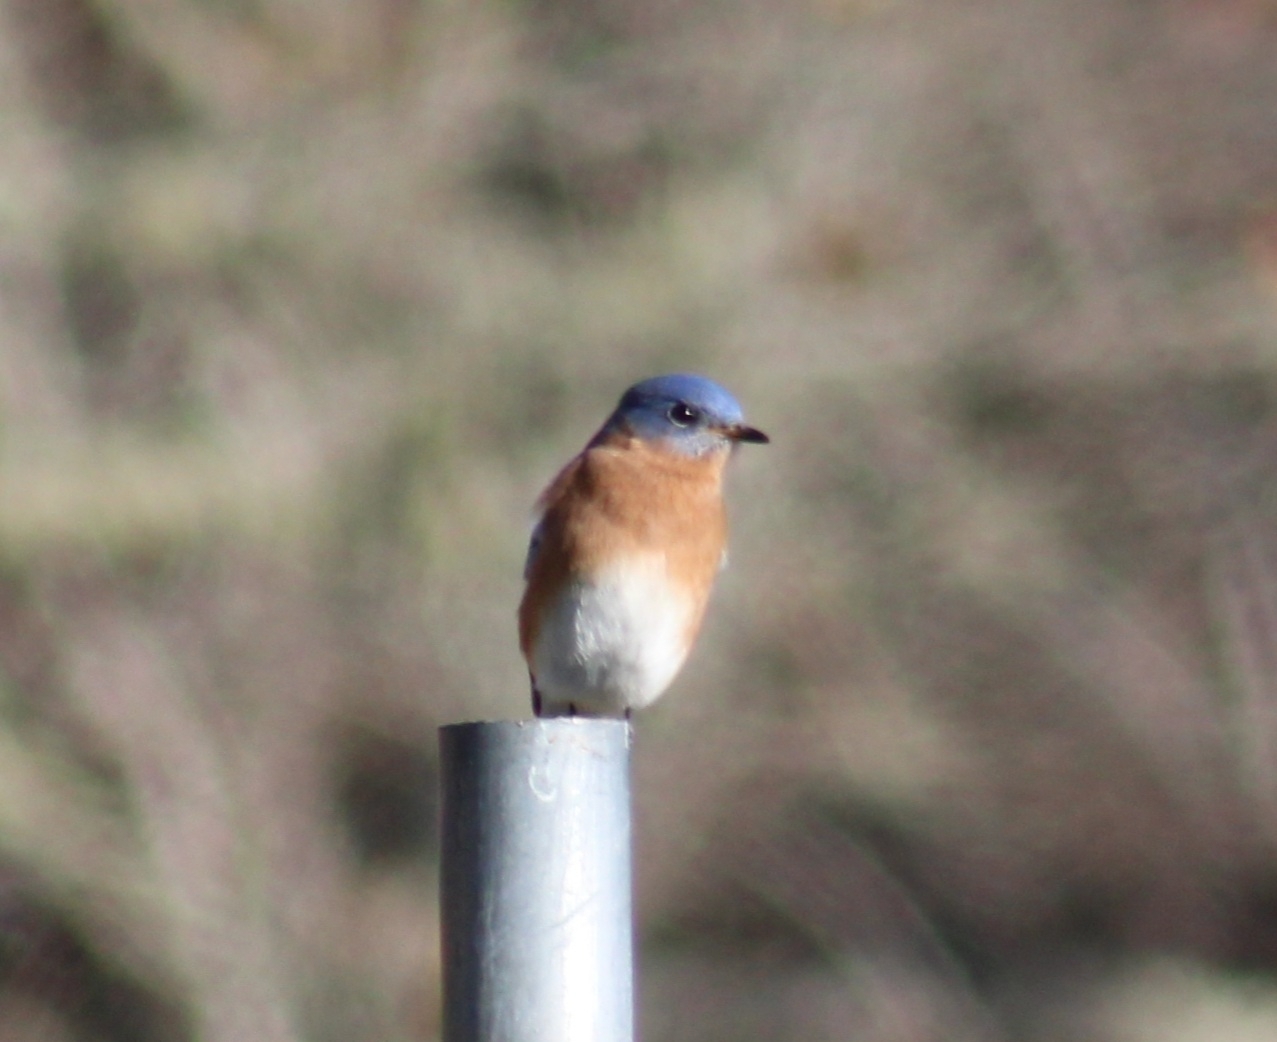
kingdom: Animalia
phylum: Chordata
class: Aves
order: Passeriformes
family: Turdidae
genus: Sialia
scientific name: Sialia sialis
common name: Eastern bluebird
